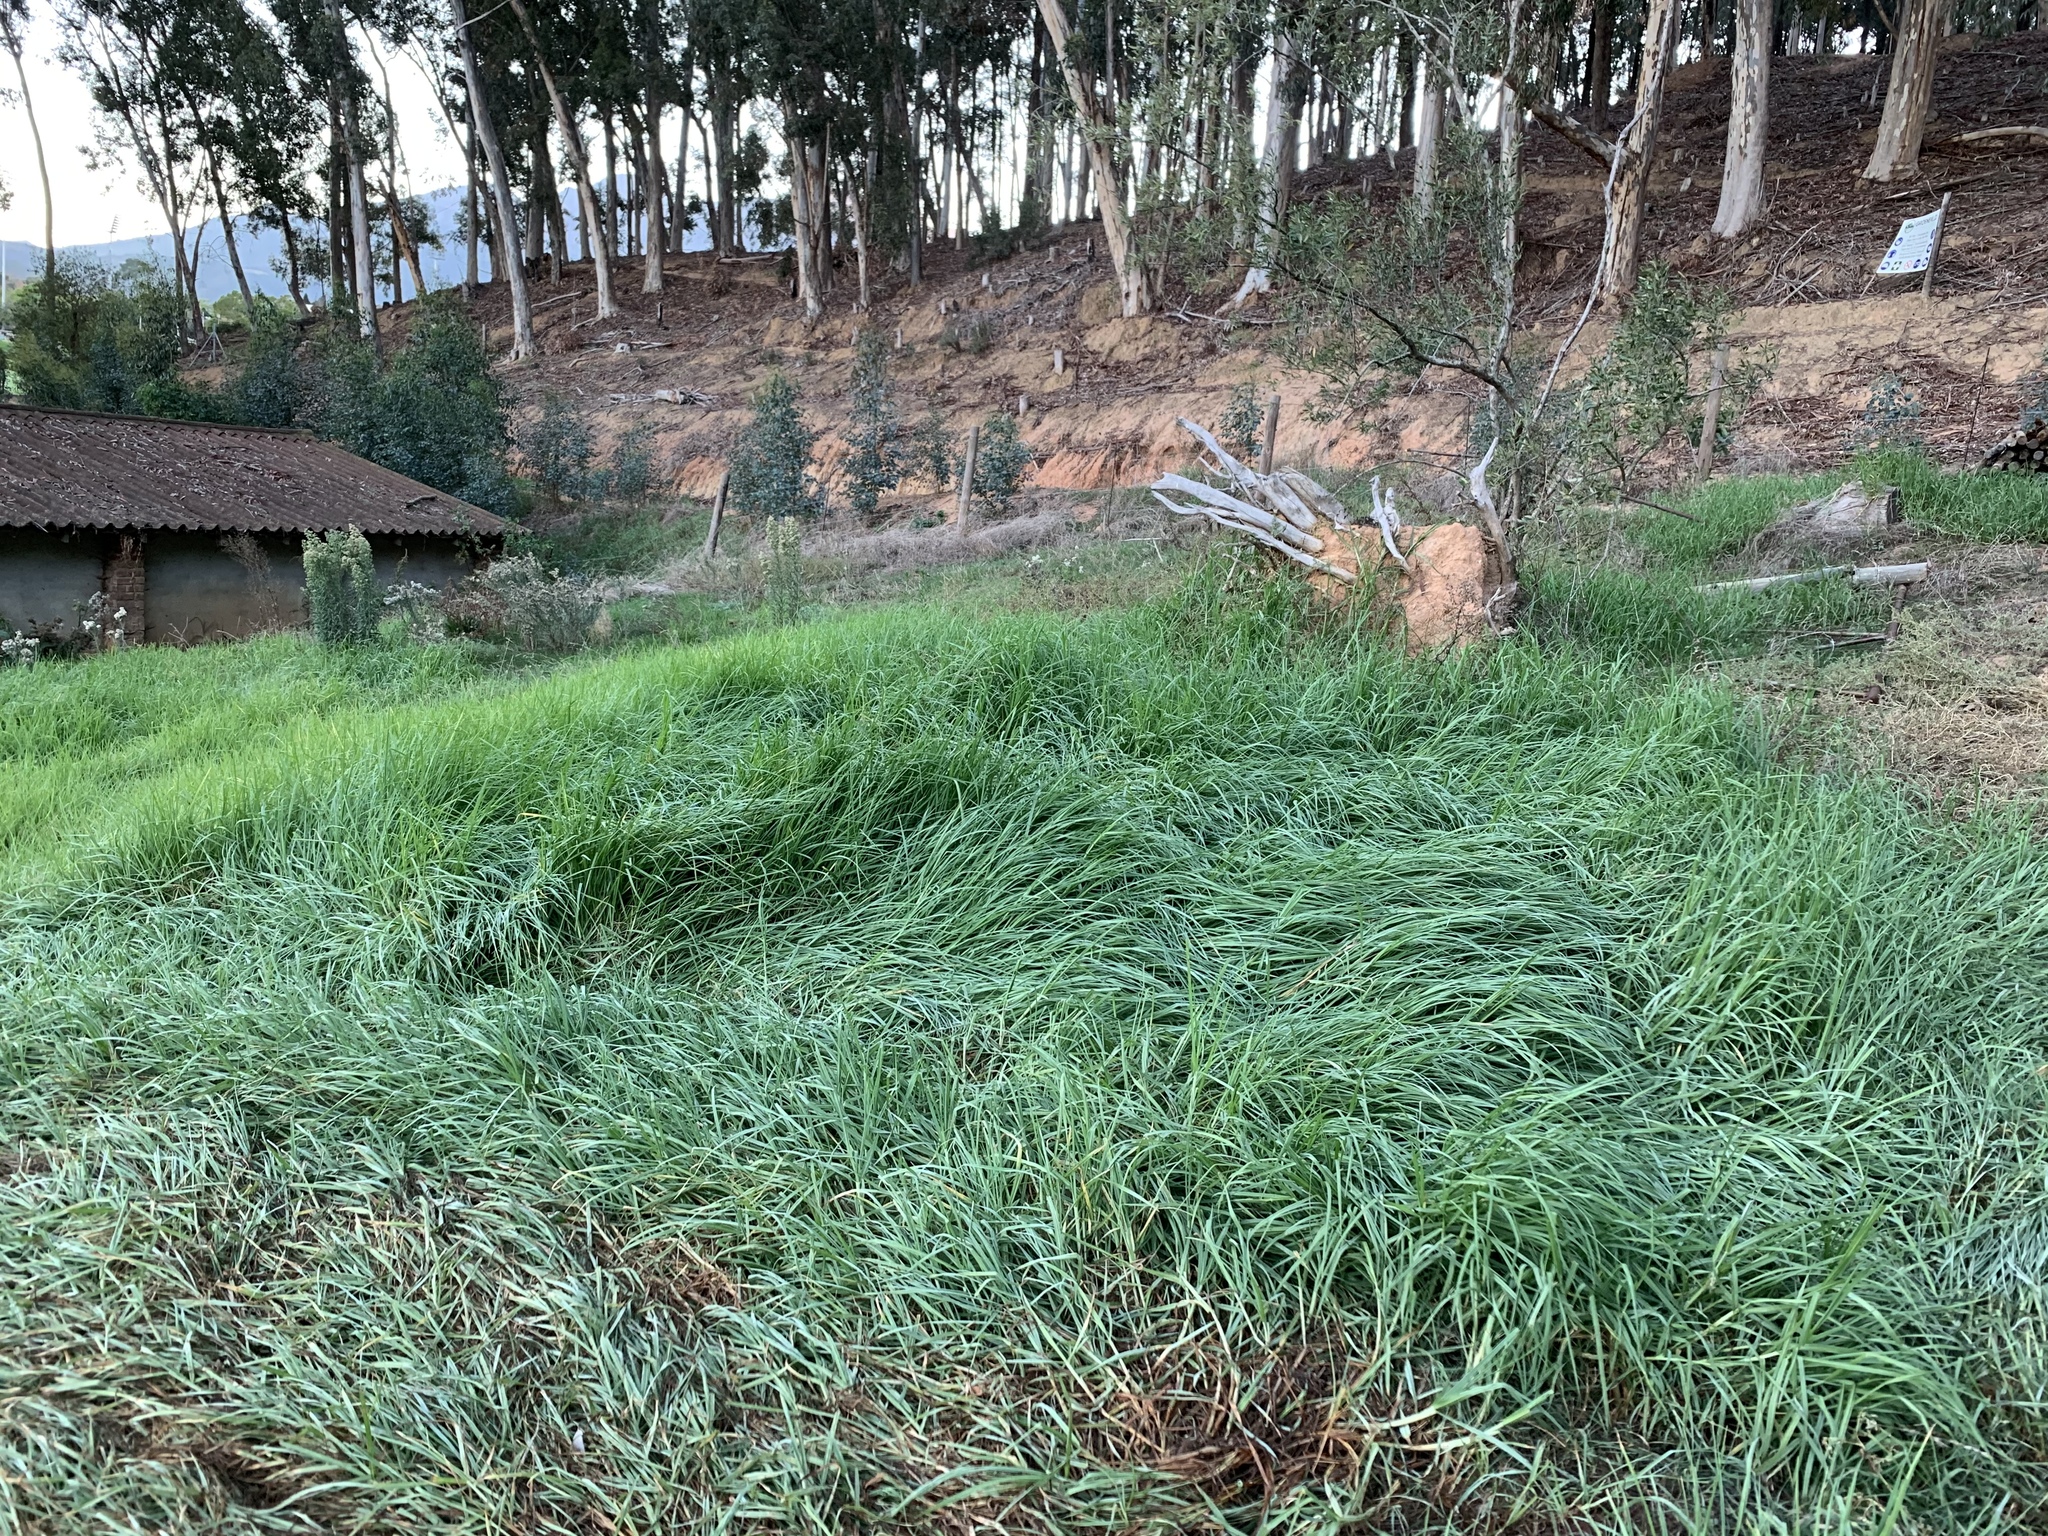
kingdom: Plantae
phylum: Tracheophyta
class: Liliopsida
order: Poales
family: Poaceae
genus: Cenchrus
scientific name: Cenchrus clandestinus
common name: Kikuyugrass
